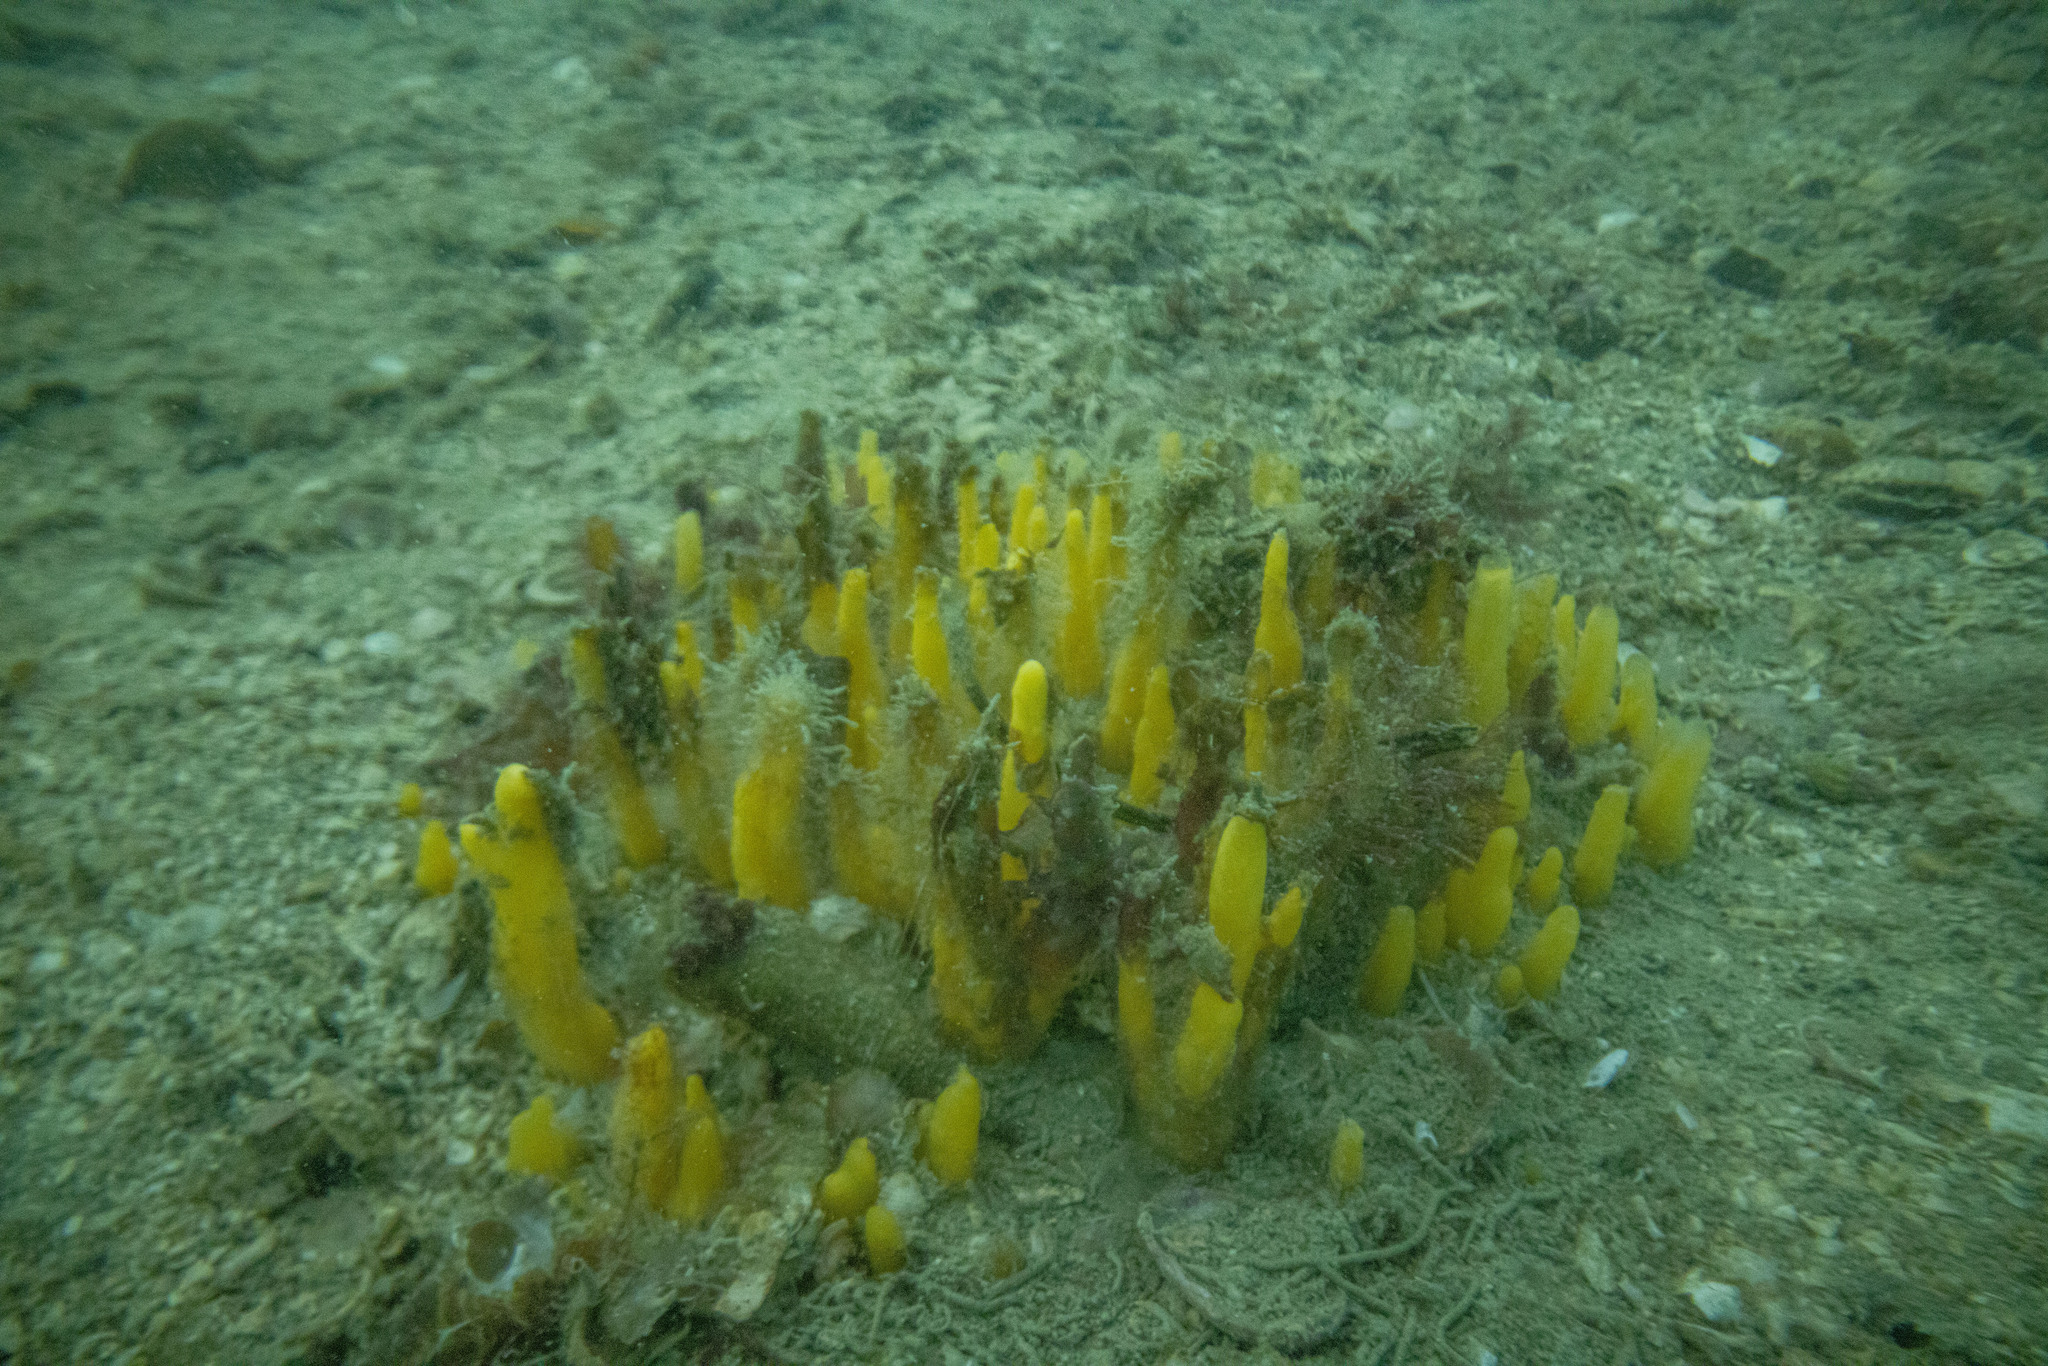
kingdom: Animalia
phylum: Porifera
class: Demospongiae
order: Suberitida
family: Halichondriidae
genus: Ciocalypta
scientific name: Ciocalypta polymastia
